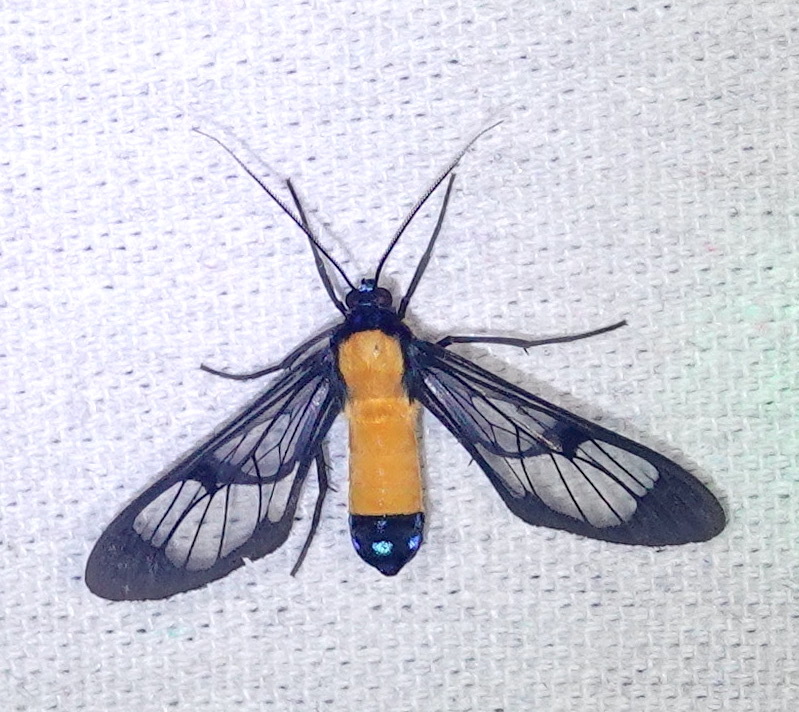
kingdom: Animalia
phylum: Arthropoda
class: Insecta
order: Lepidoptera
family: Erebidae
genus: Sarosa
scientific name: Sarosa annotata
